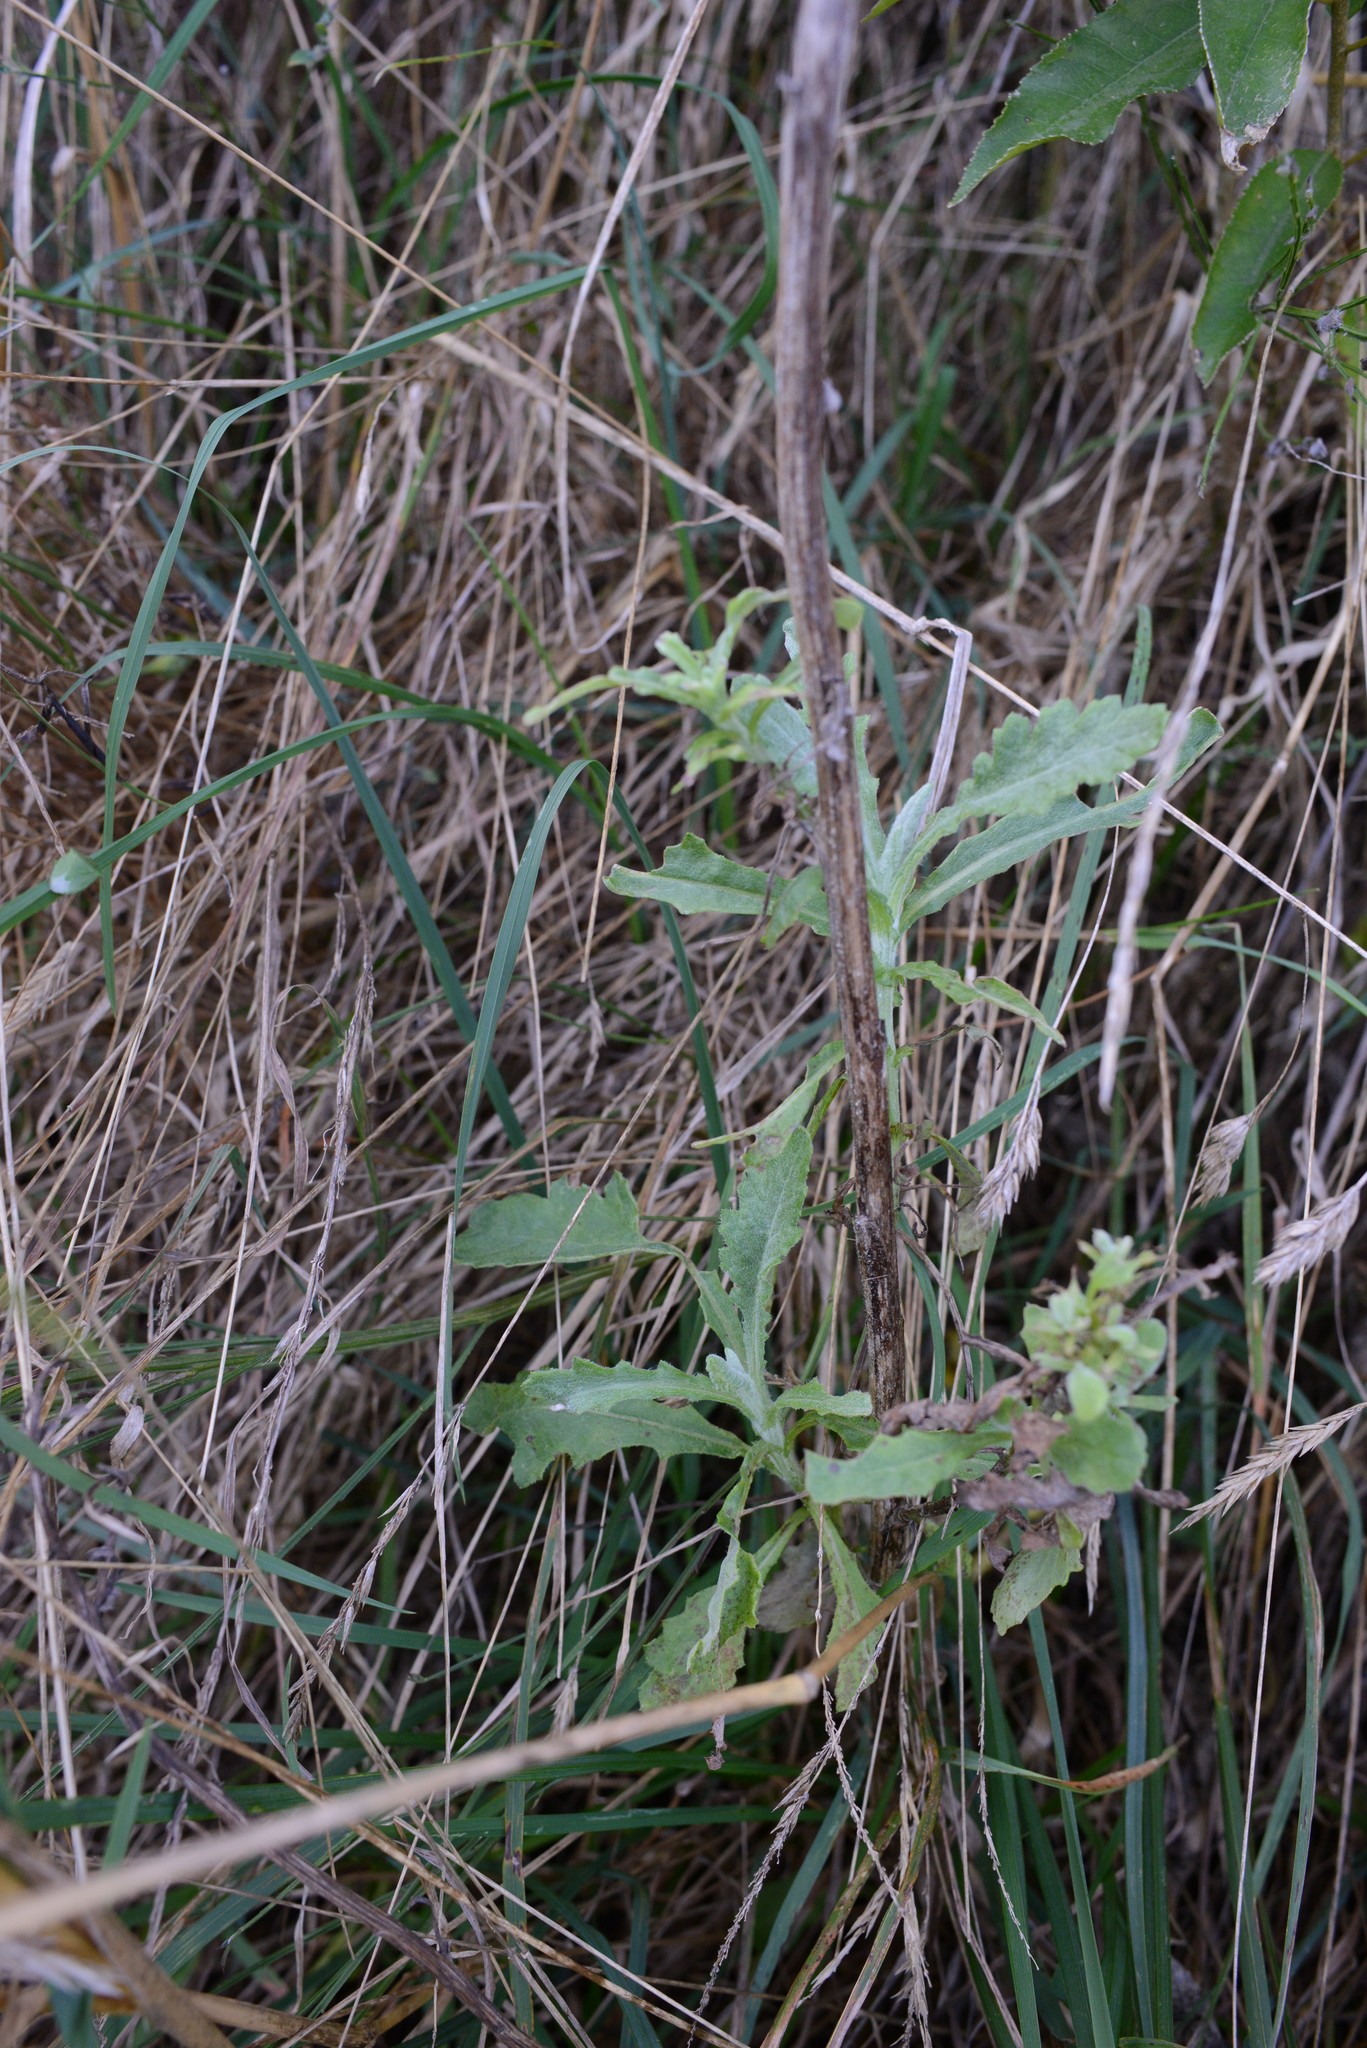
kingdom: Plantae
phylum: Tracheophyta
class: Magnoliopsida
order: Asterales
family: Asteraceae
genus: Senecio
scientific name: Senecio glomeratus
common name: Cutleaf burnweed
